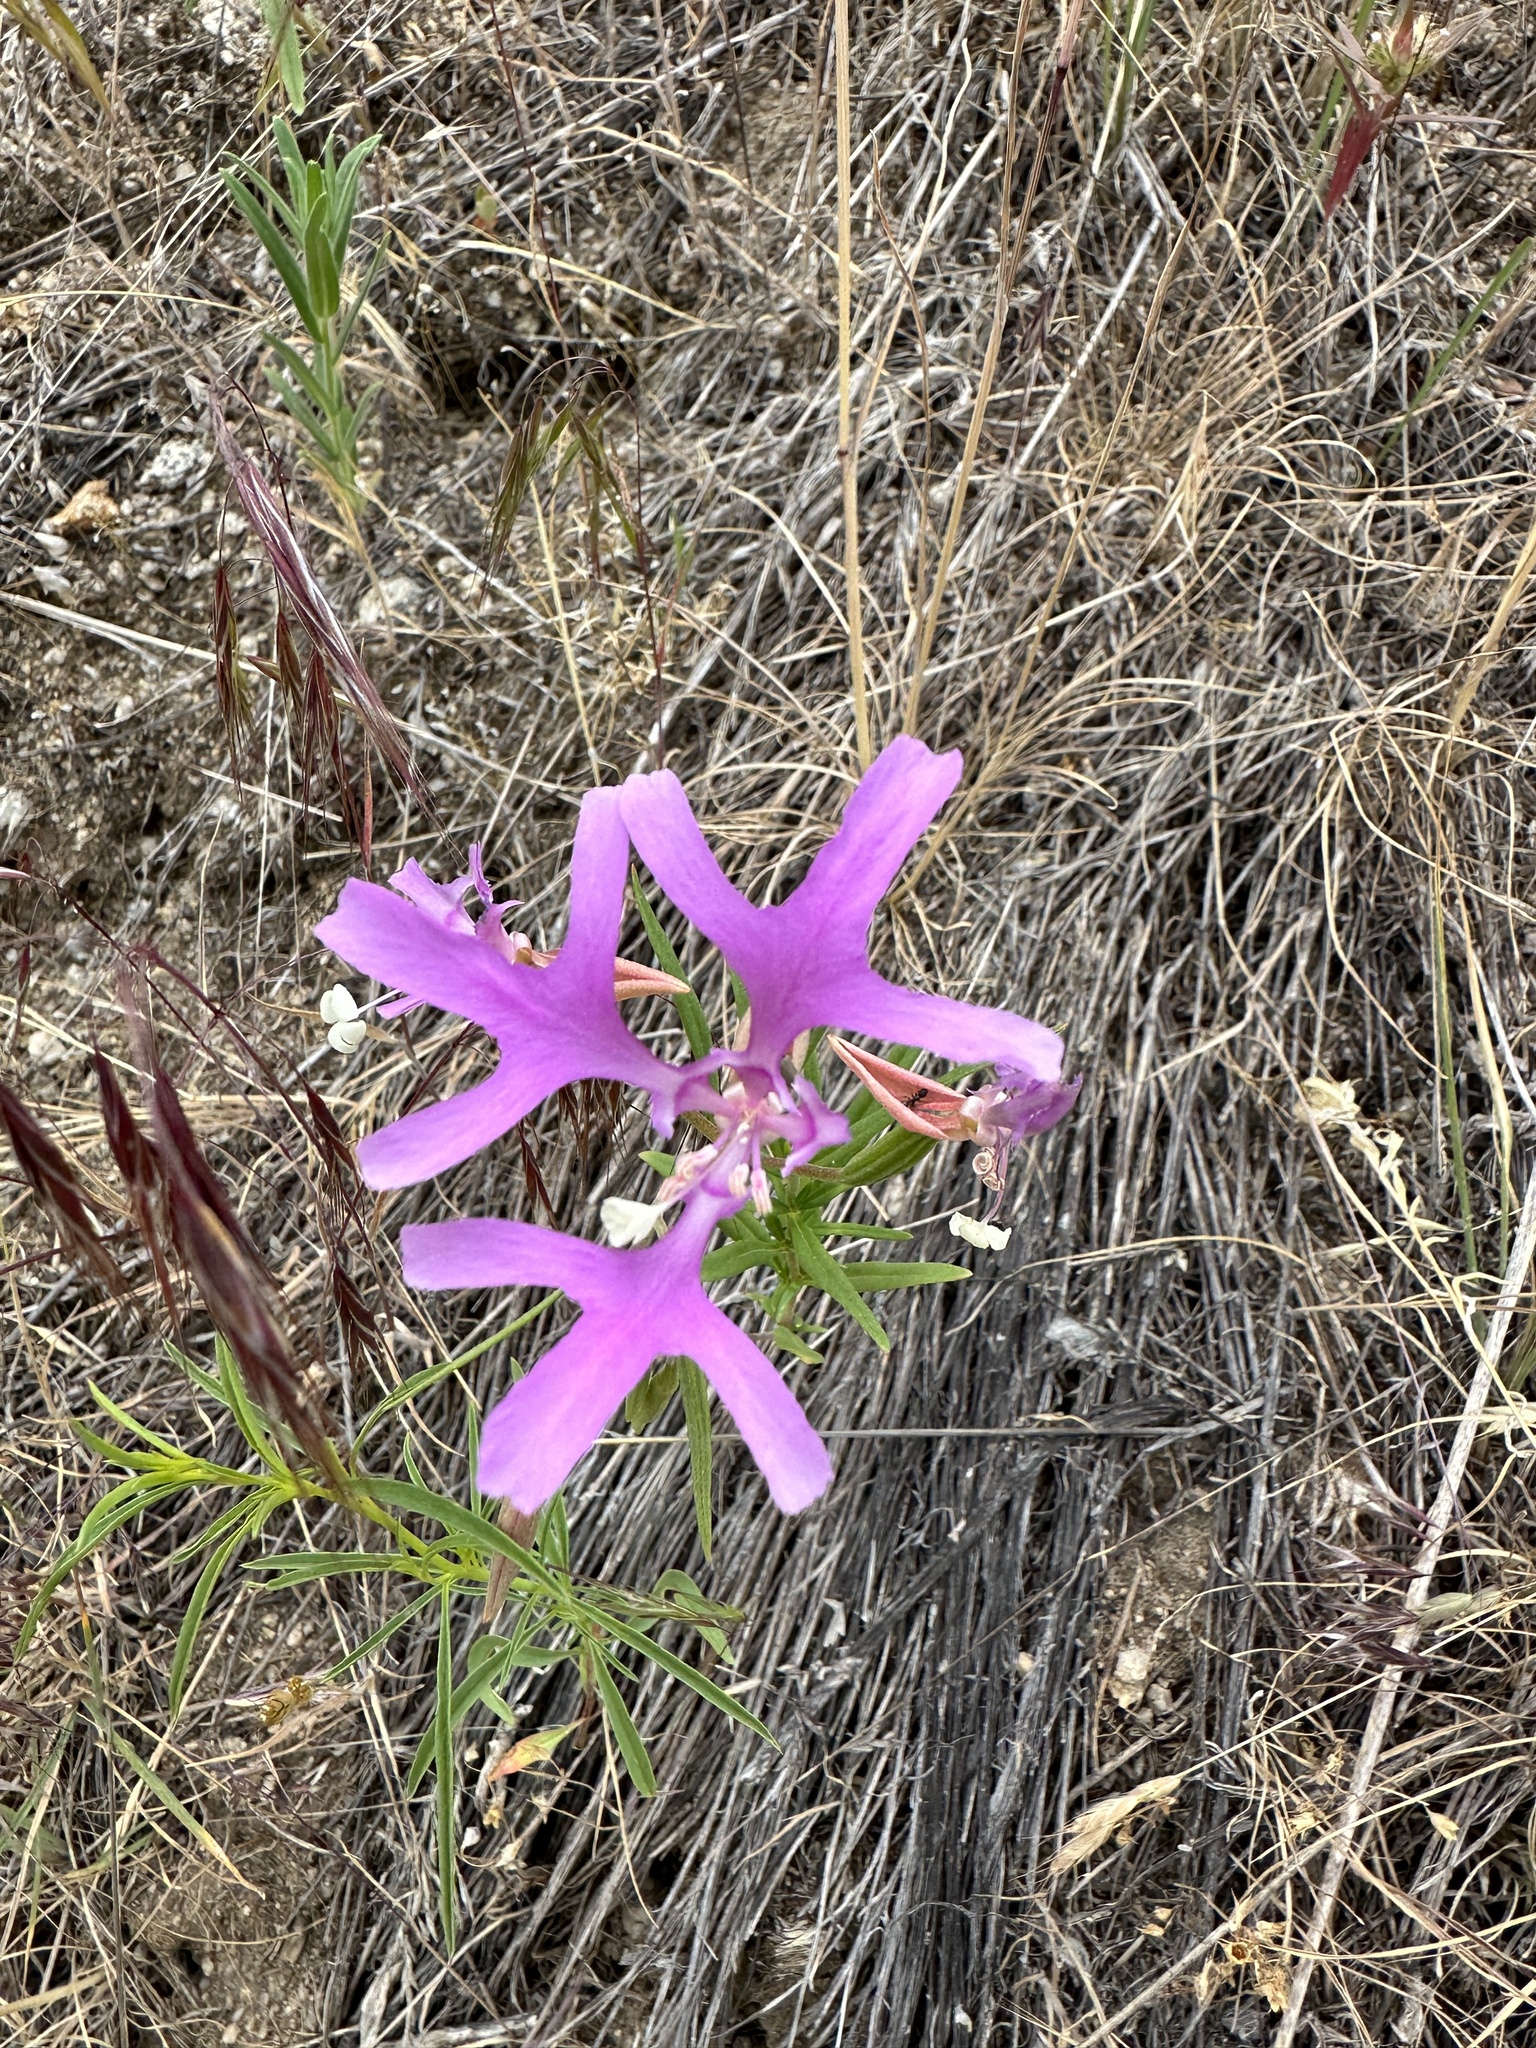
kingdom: Plantae
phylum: Tracheophyta
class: Magnoliopsida
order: Myrtales
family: Onagraceae
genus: Clarkia
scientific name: Clarkia pulchella
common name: Deer horn
